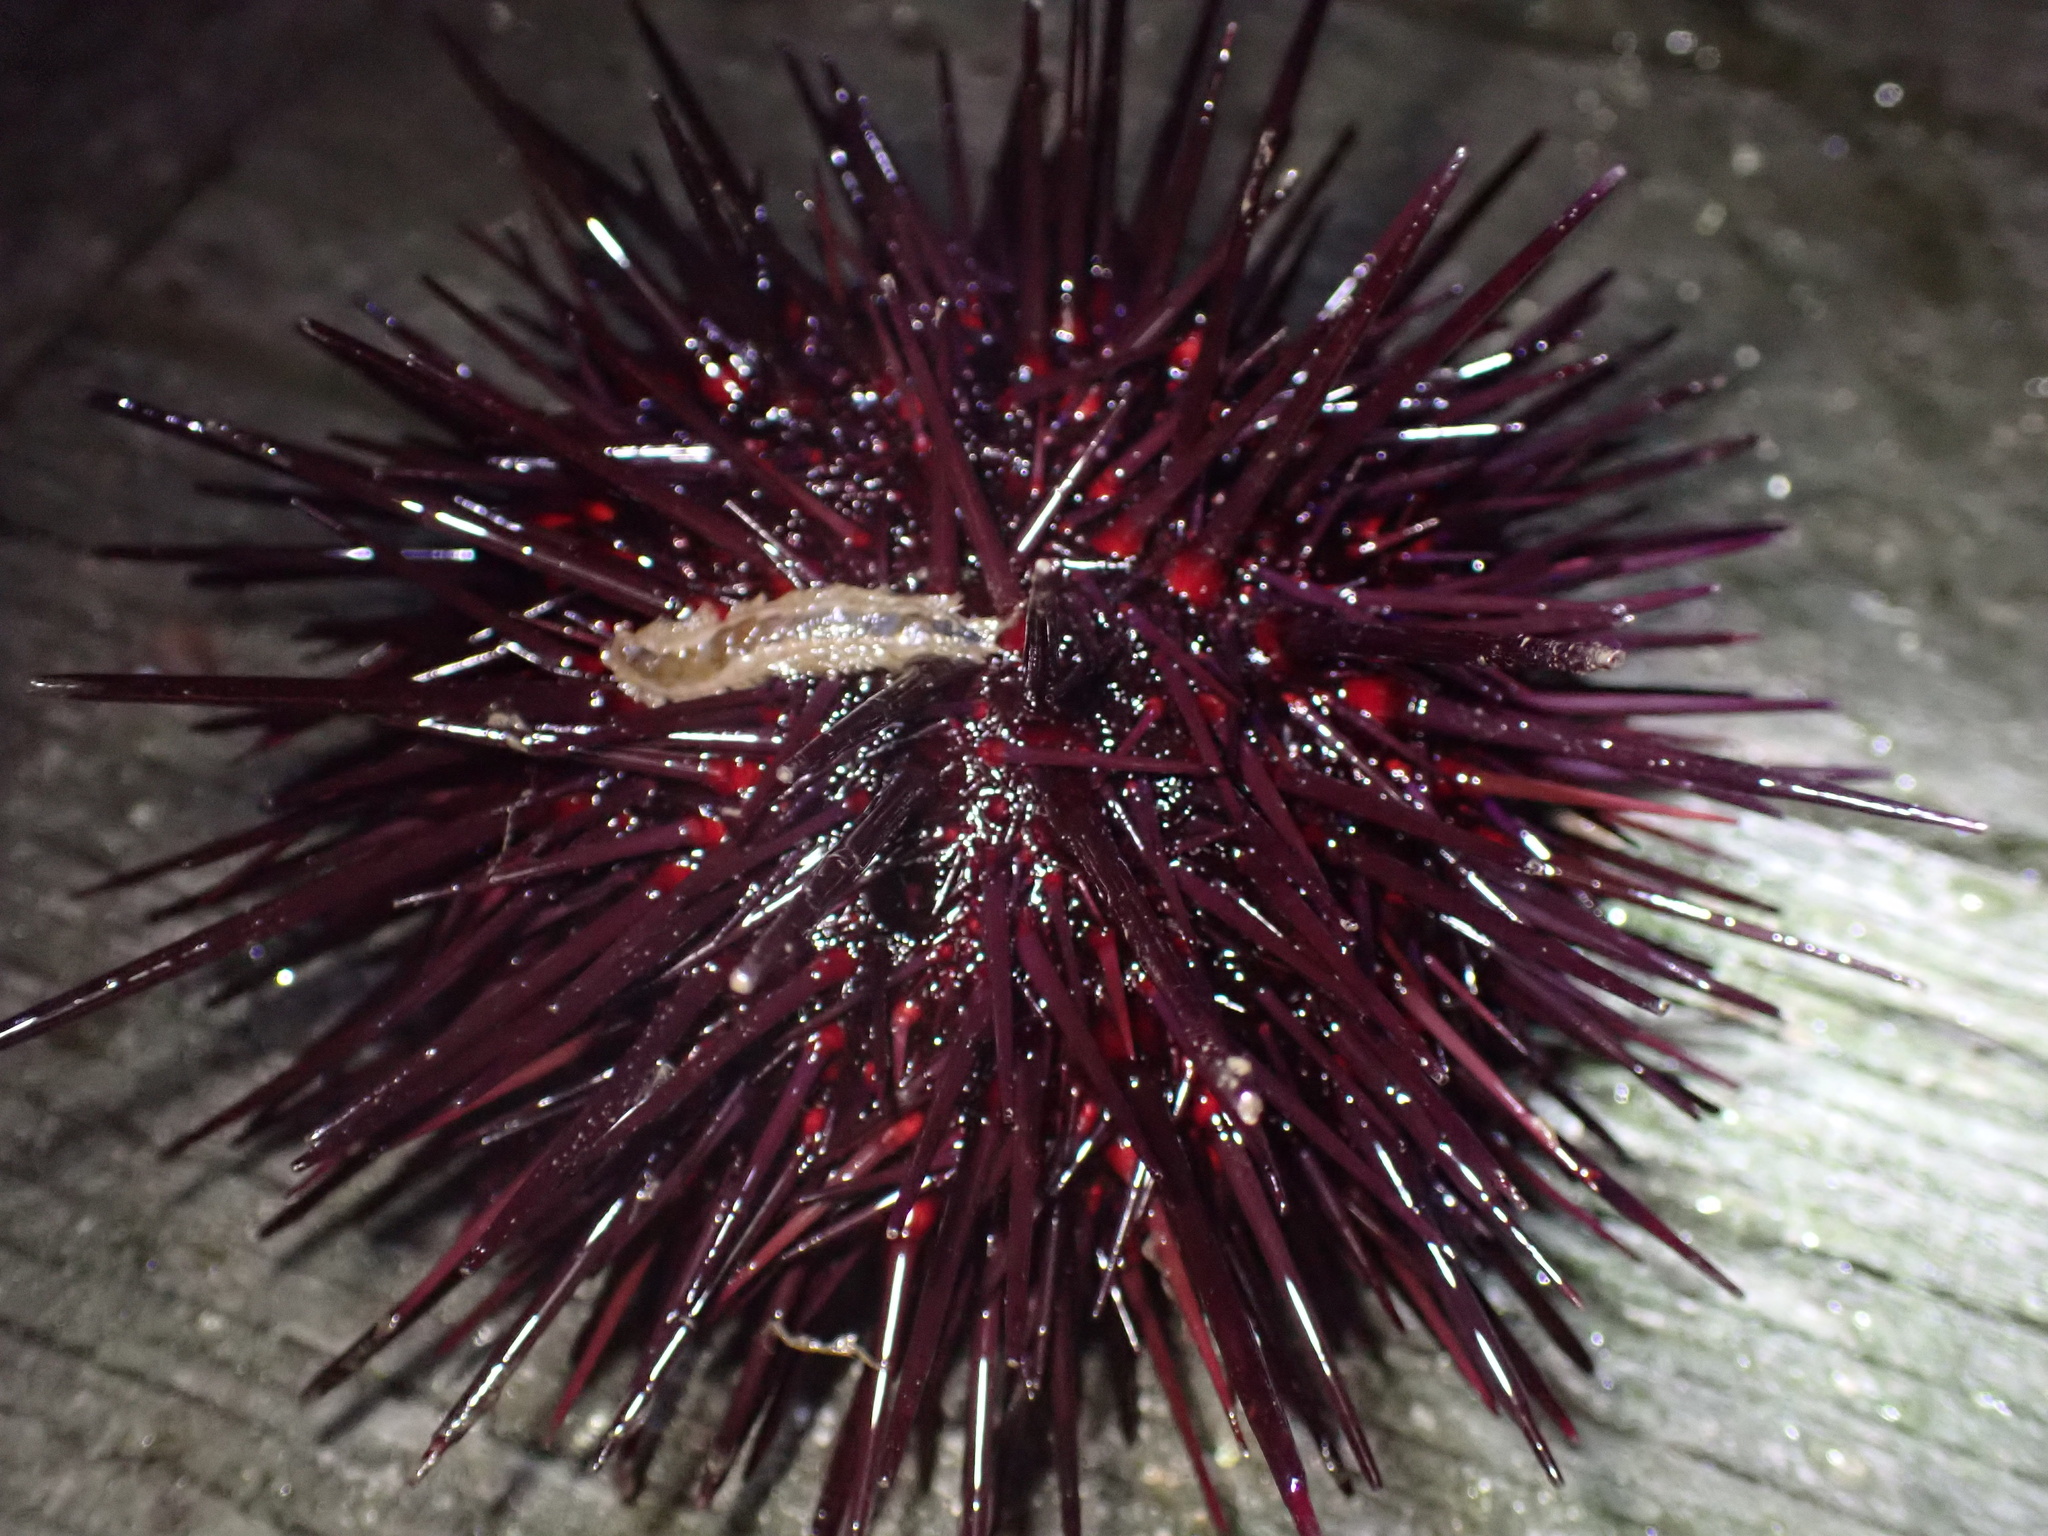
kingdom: Animalia
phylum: Echinodermata
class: Echinoidea
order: Camarodonta
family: Strongylocentrotidae
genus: Mesocentrotus
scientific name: Mesocentrotus franciscanus
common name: Red sea urchin
